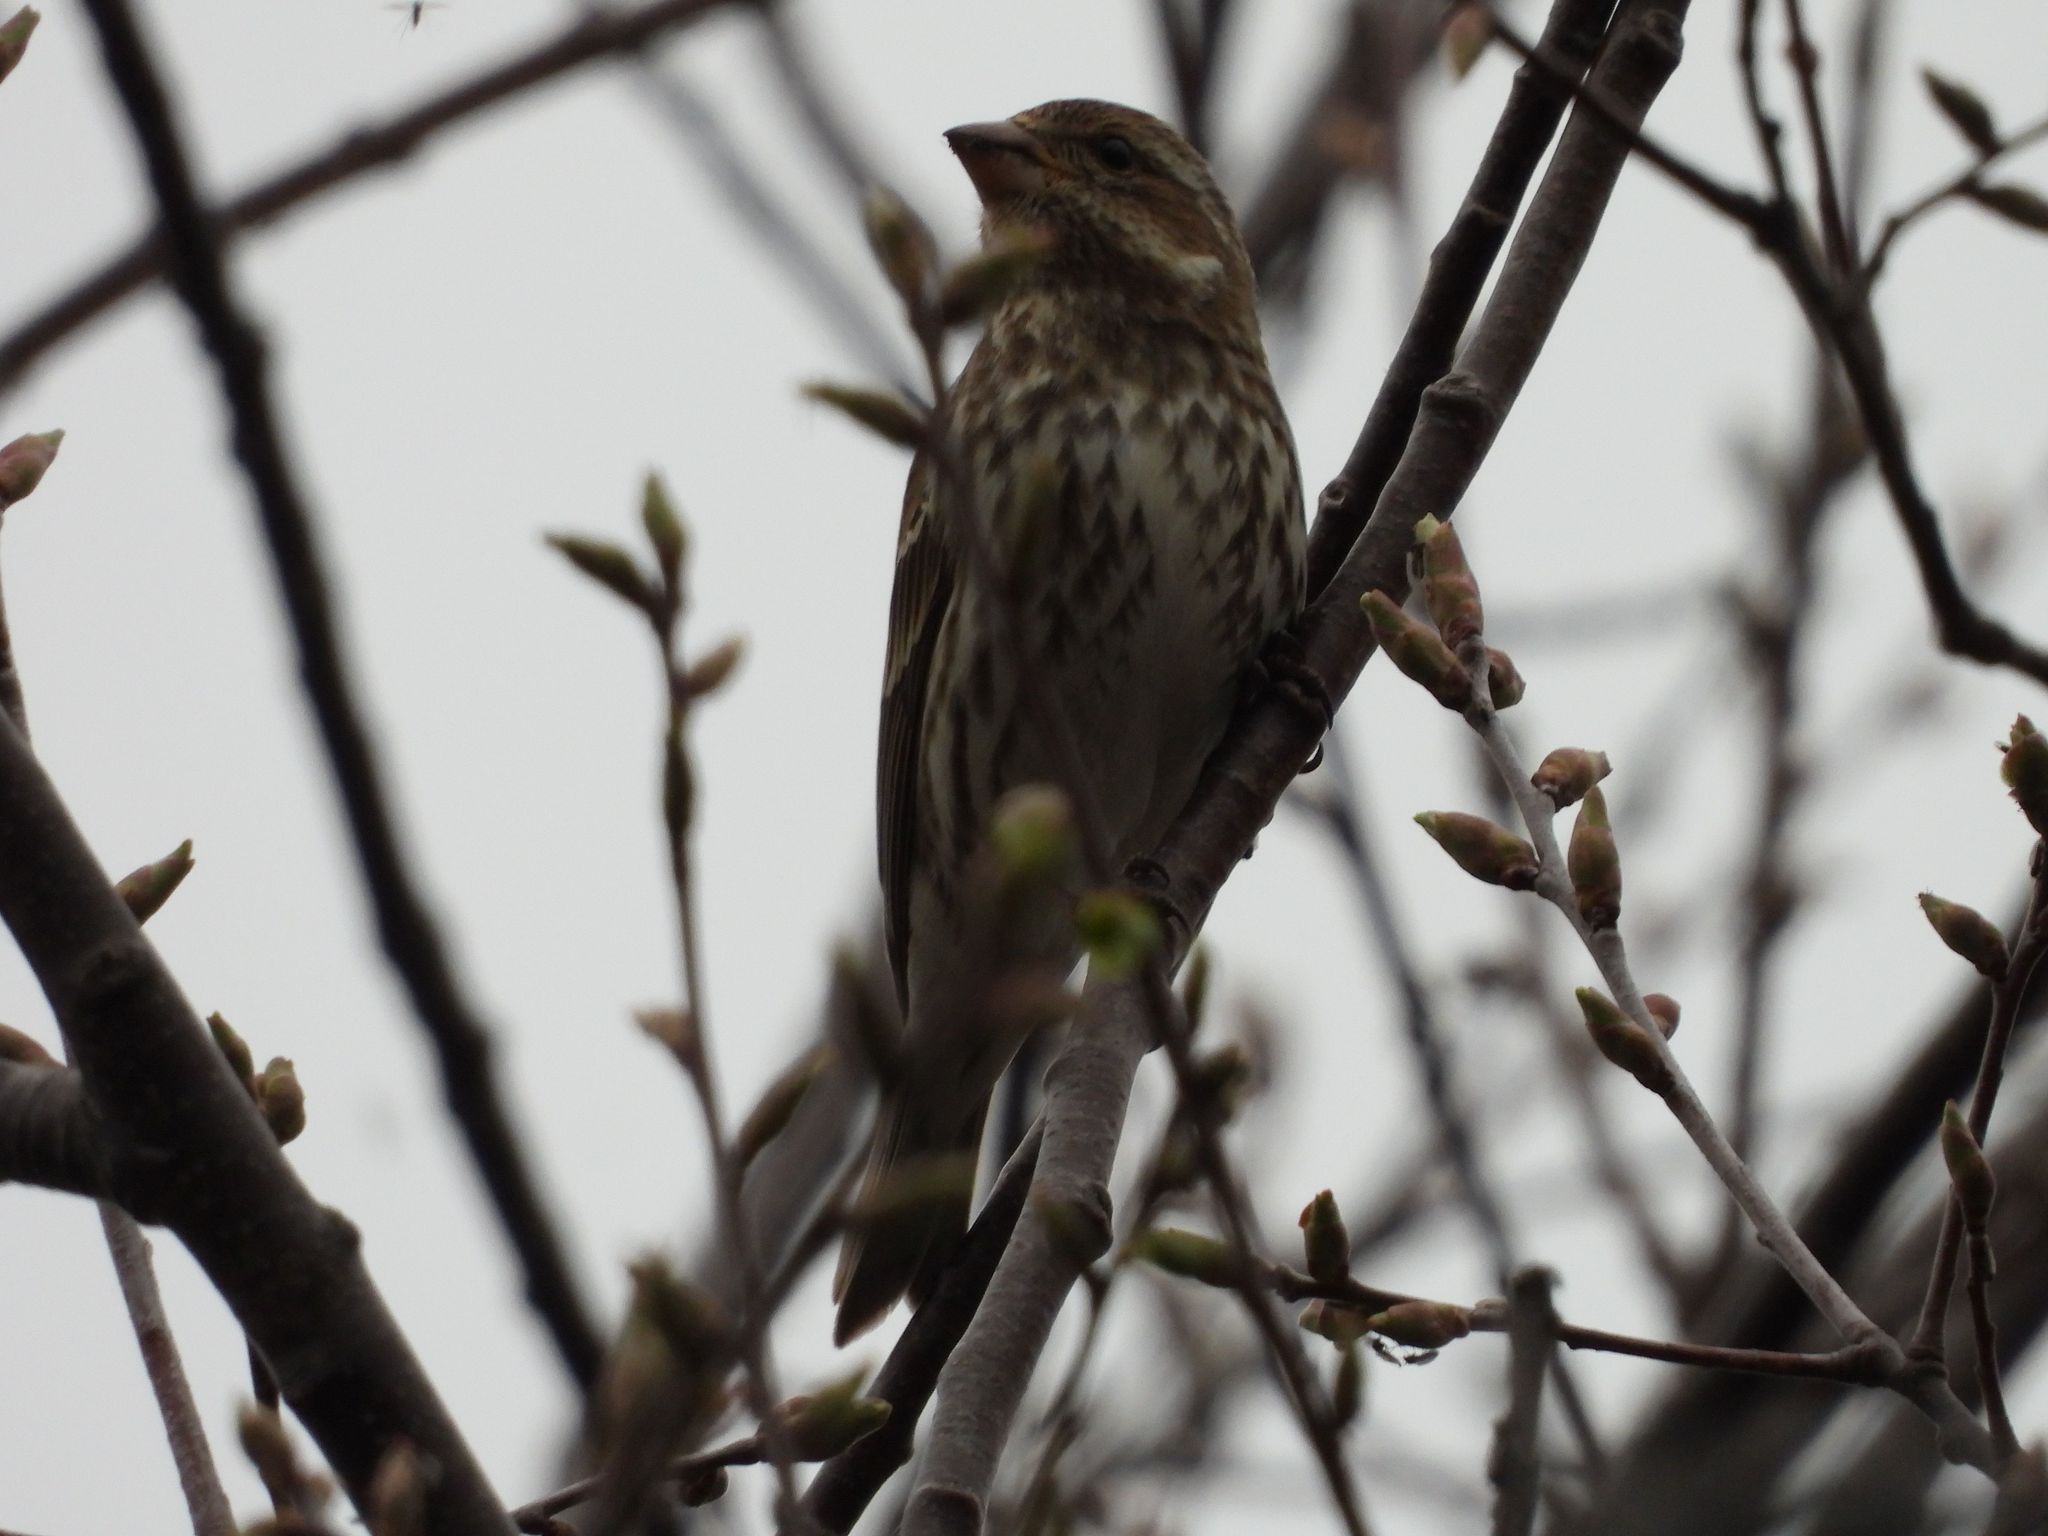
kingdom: Animalia
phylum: Chordata
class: Aves
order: Passeriformes
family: Fringillidae
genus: Haemorhous
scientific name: Haemorhous purpureus
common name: Purple finch
